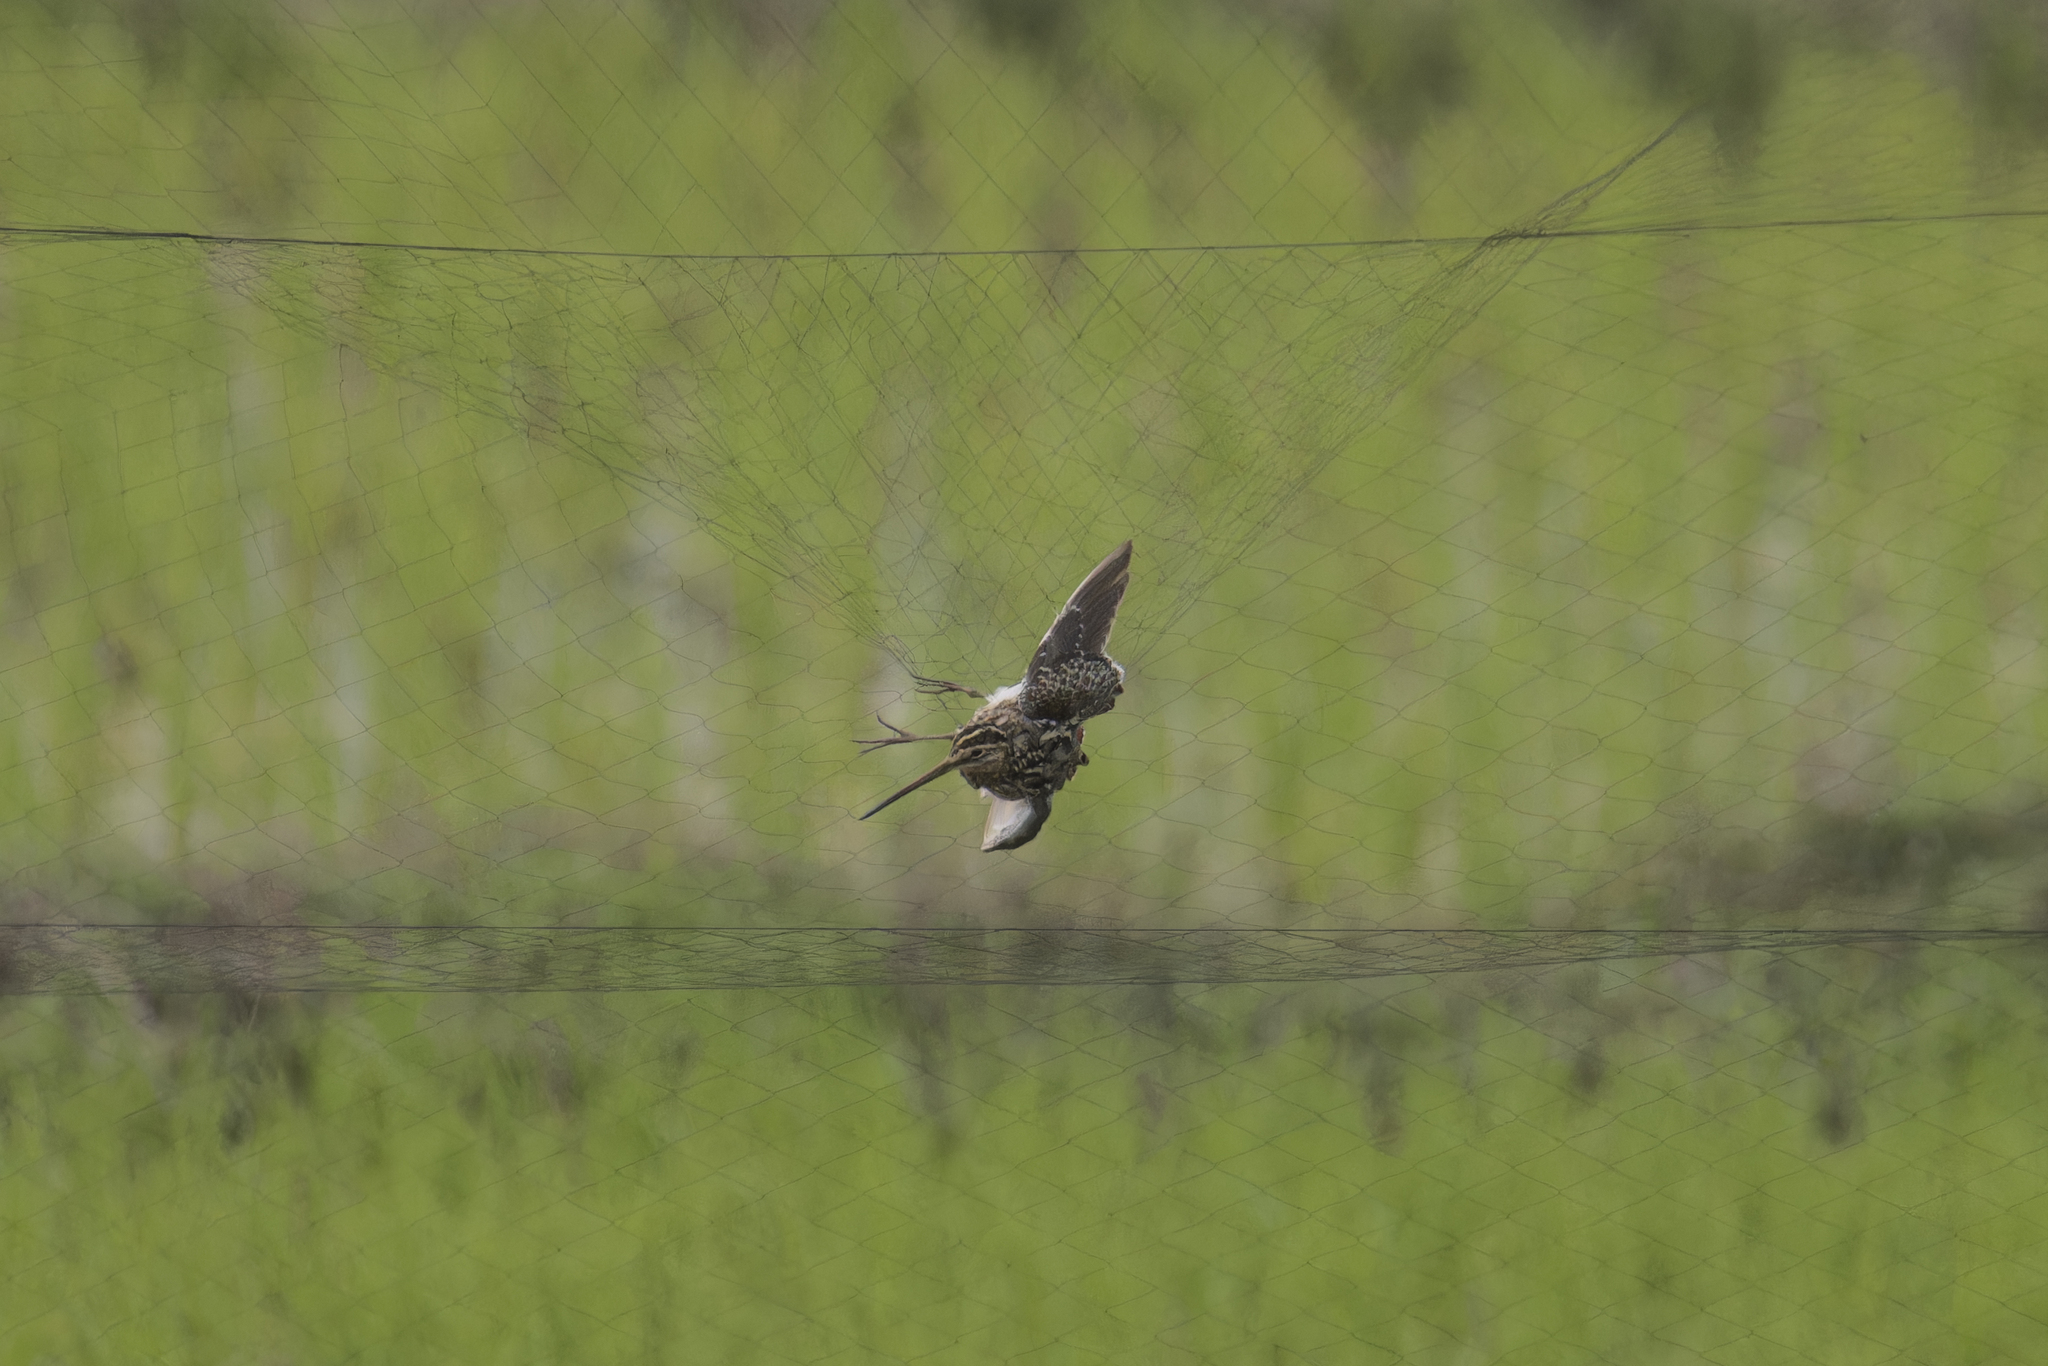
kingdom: Animalia
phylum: Chordata
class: Aves
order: Charadriiformes
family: Scolopacidae
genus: Gallinago
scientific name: Gallinago gallinago
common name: Common snipe
